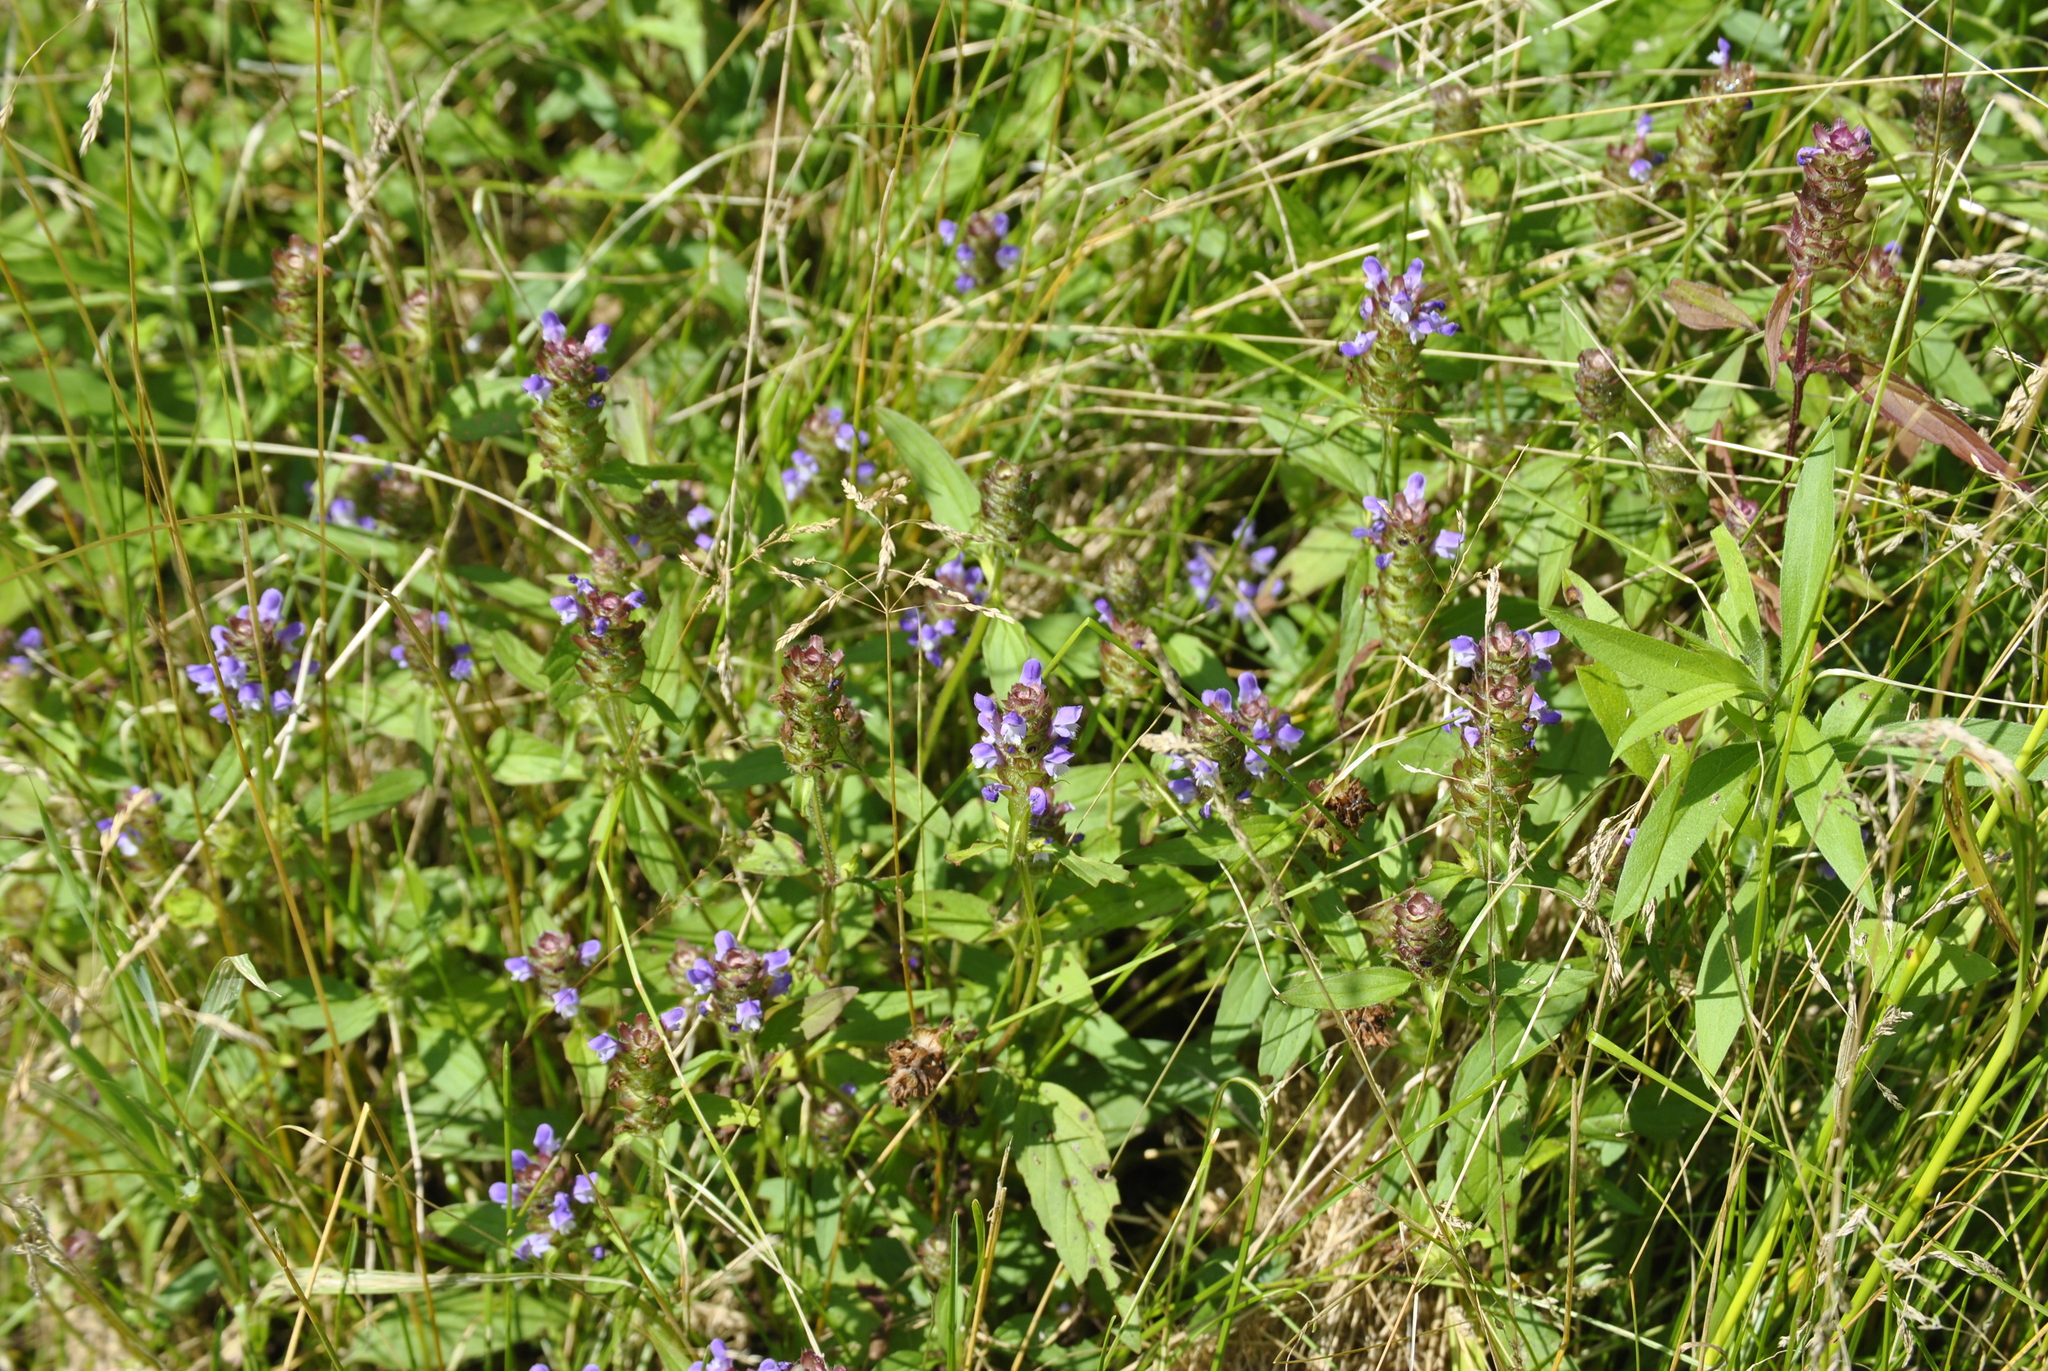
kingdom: Plantae
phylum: Tracheophyta
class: Magnoliopsida
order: Lamiales
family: Lamiaceae
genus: Prunella
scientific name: Prunella vulgaris
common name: Heal-all
